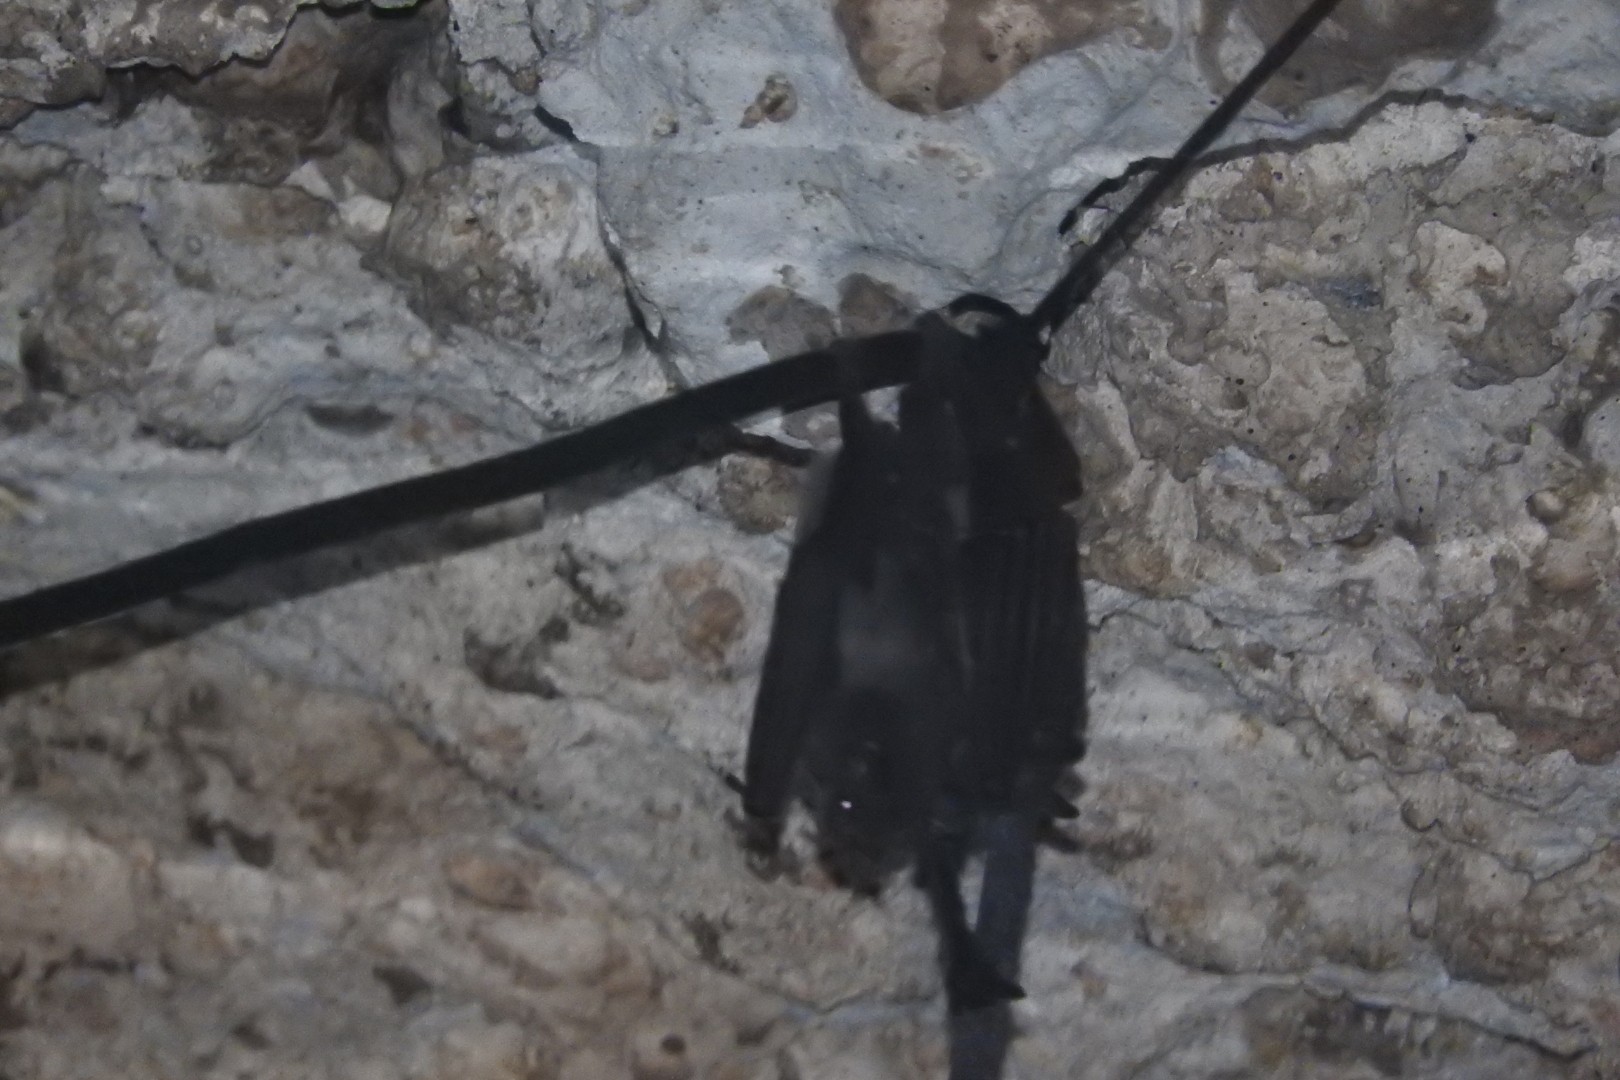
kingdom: Animalia
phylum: Chordata
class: Mammalia
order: Chiroptera
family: Phyllostomidae
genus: Artibeus
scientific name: Artibeus jamaicensis
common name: Jamaican fruit-eating bat
